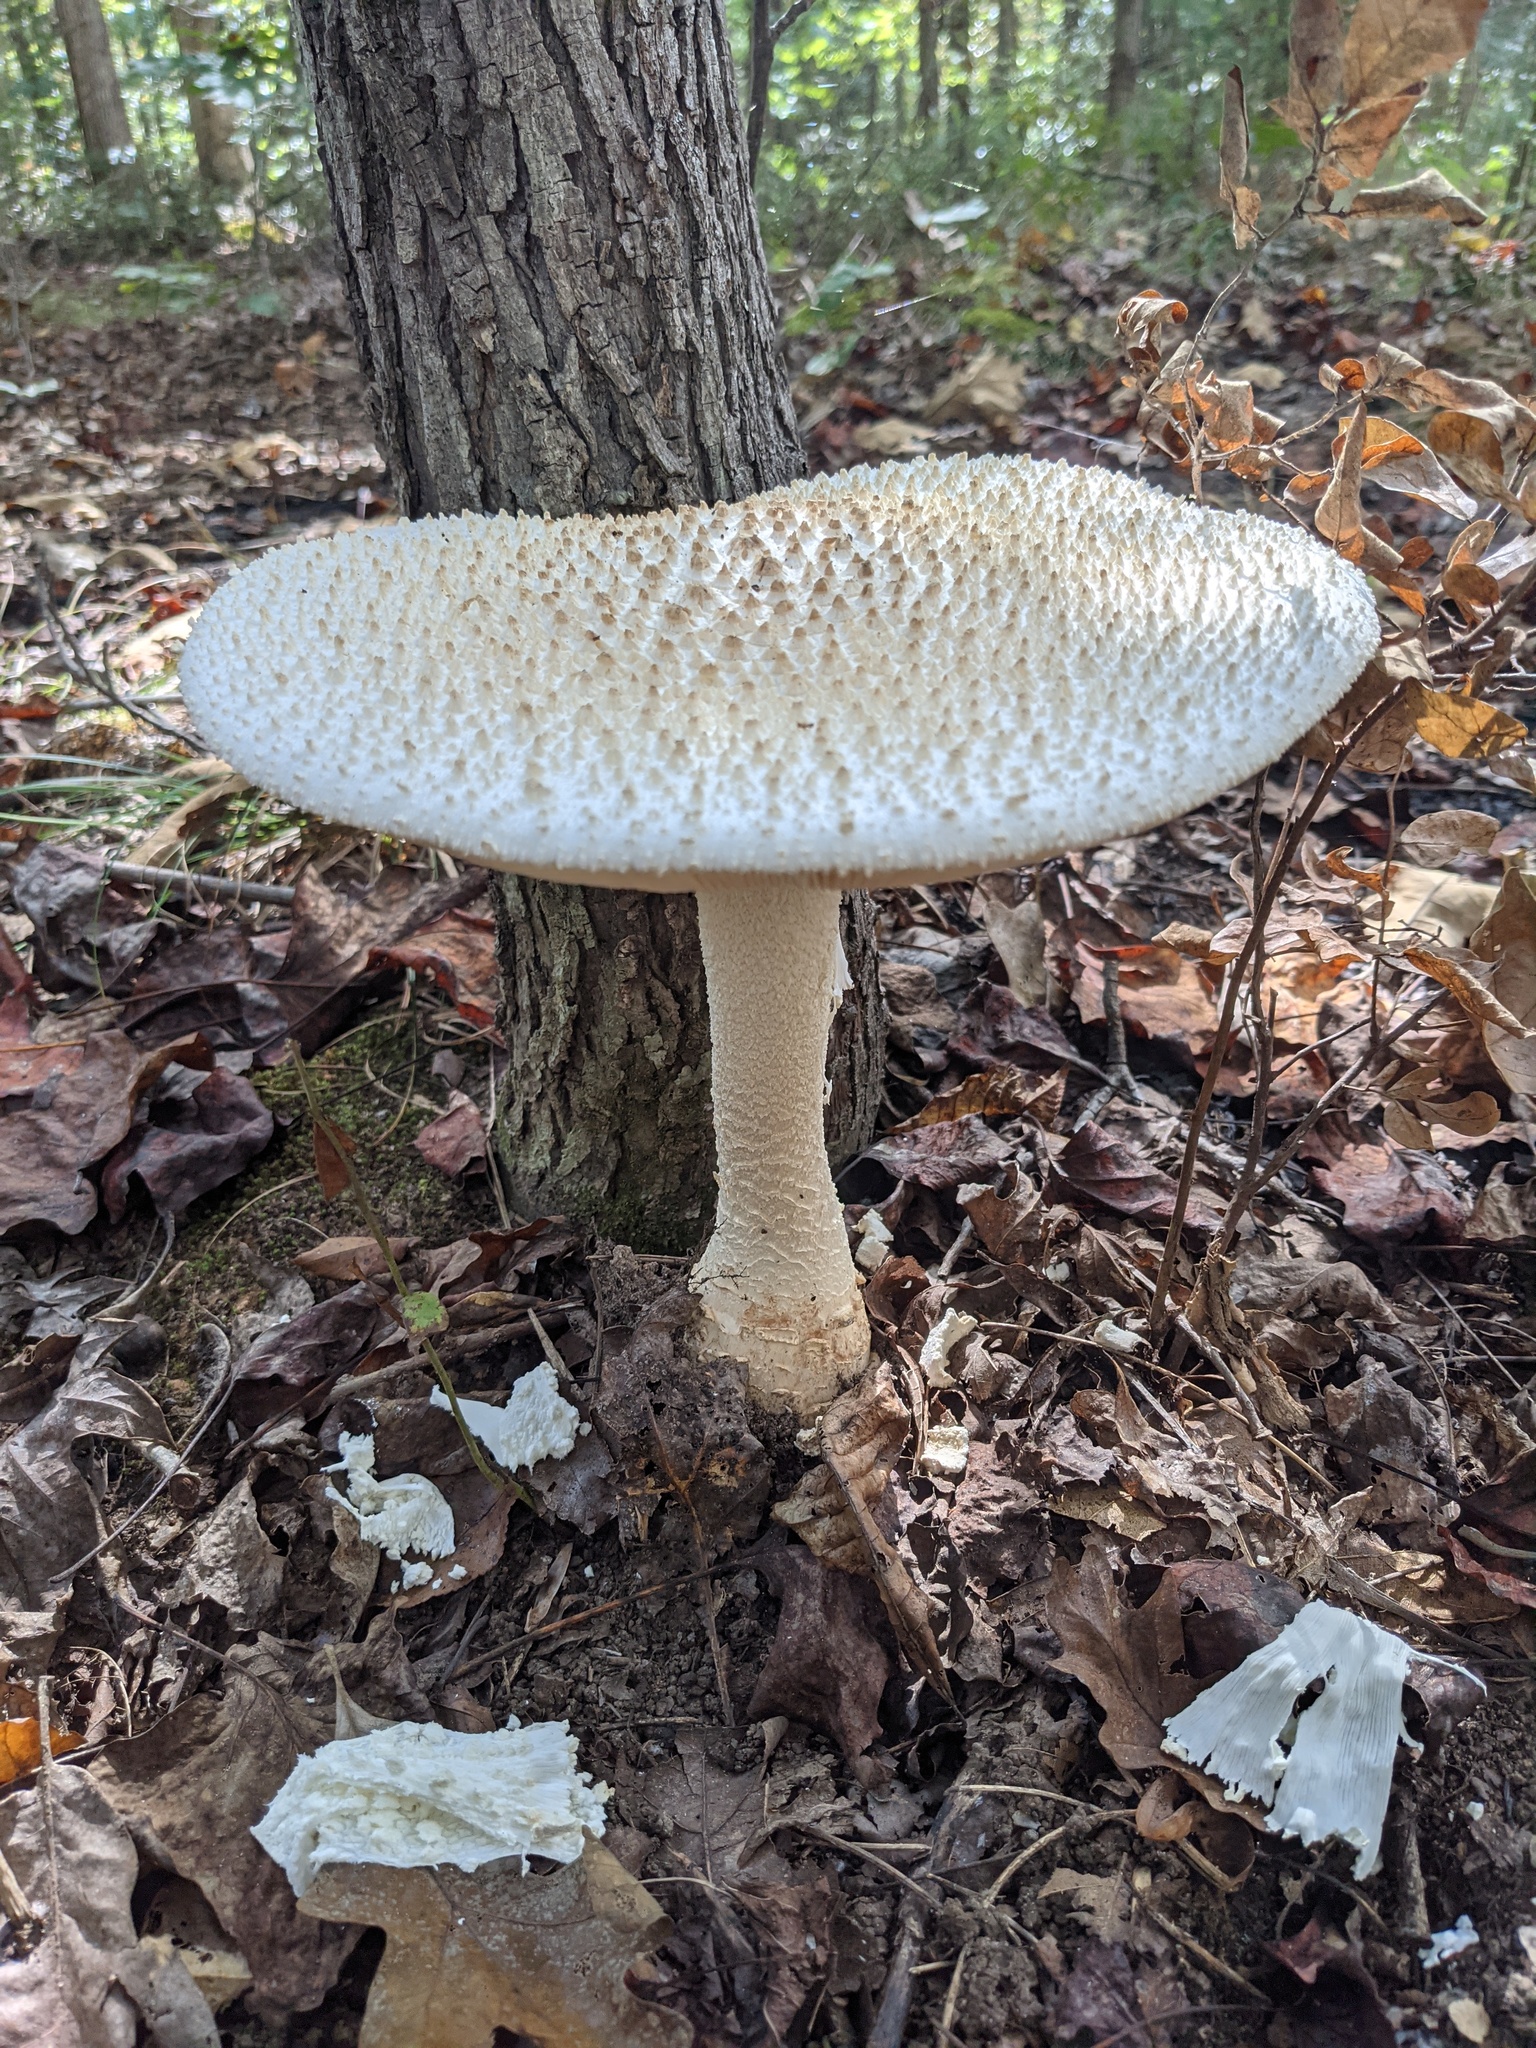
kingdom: Fungi
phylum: Basidiomycota
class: Agaricomycetes
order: Agaricales
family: Amanitaceae
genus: Amanita
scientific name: Amanita daucipes
